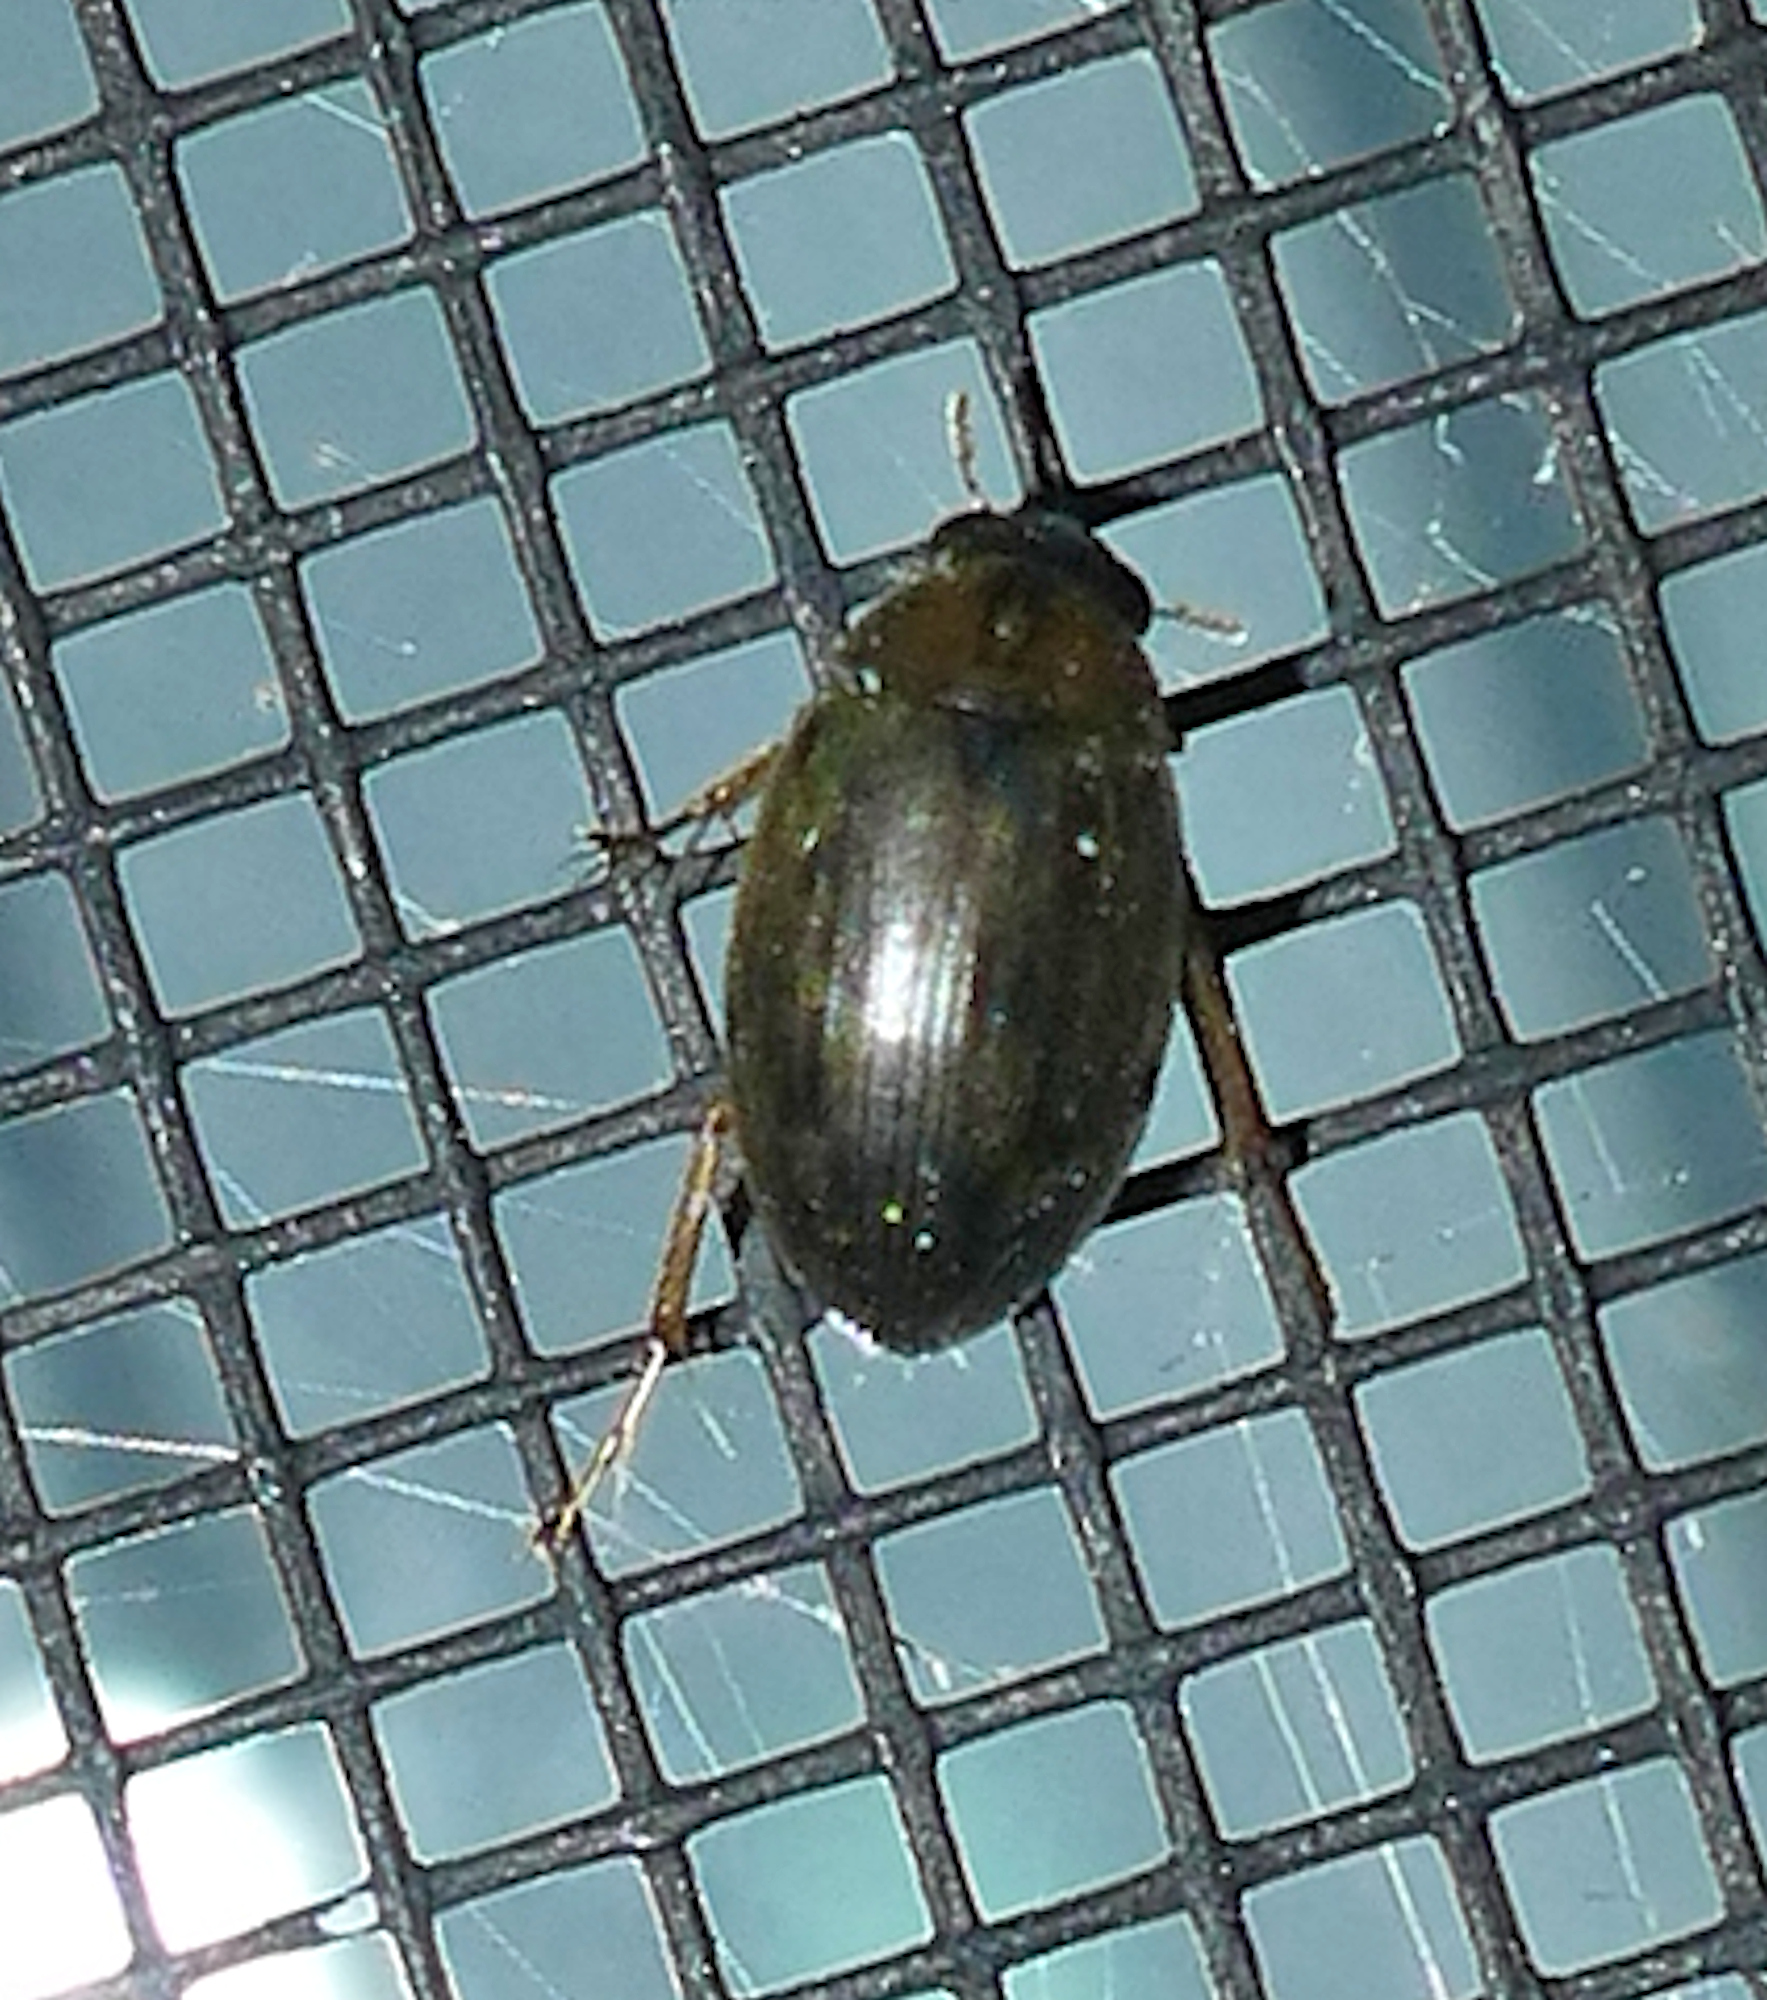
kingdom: Animalia
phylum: Arthropoda
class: Insecta
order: Coleoptera
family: Hydrophilidae
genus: Berosus
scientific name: Berosus
